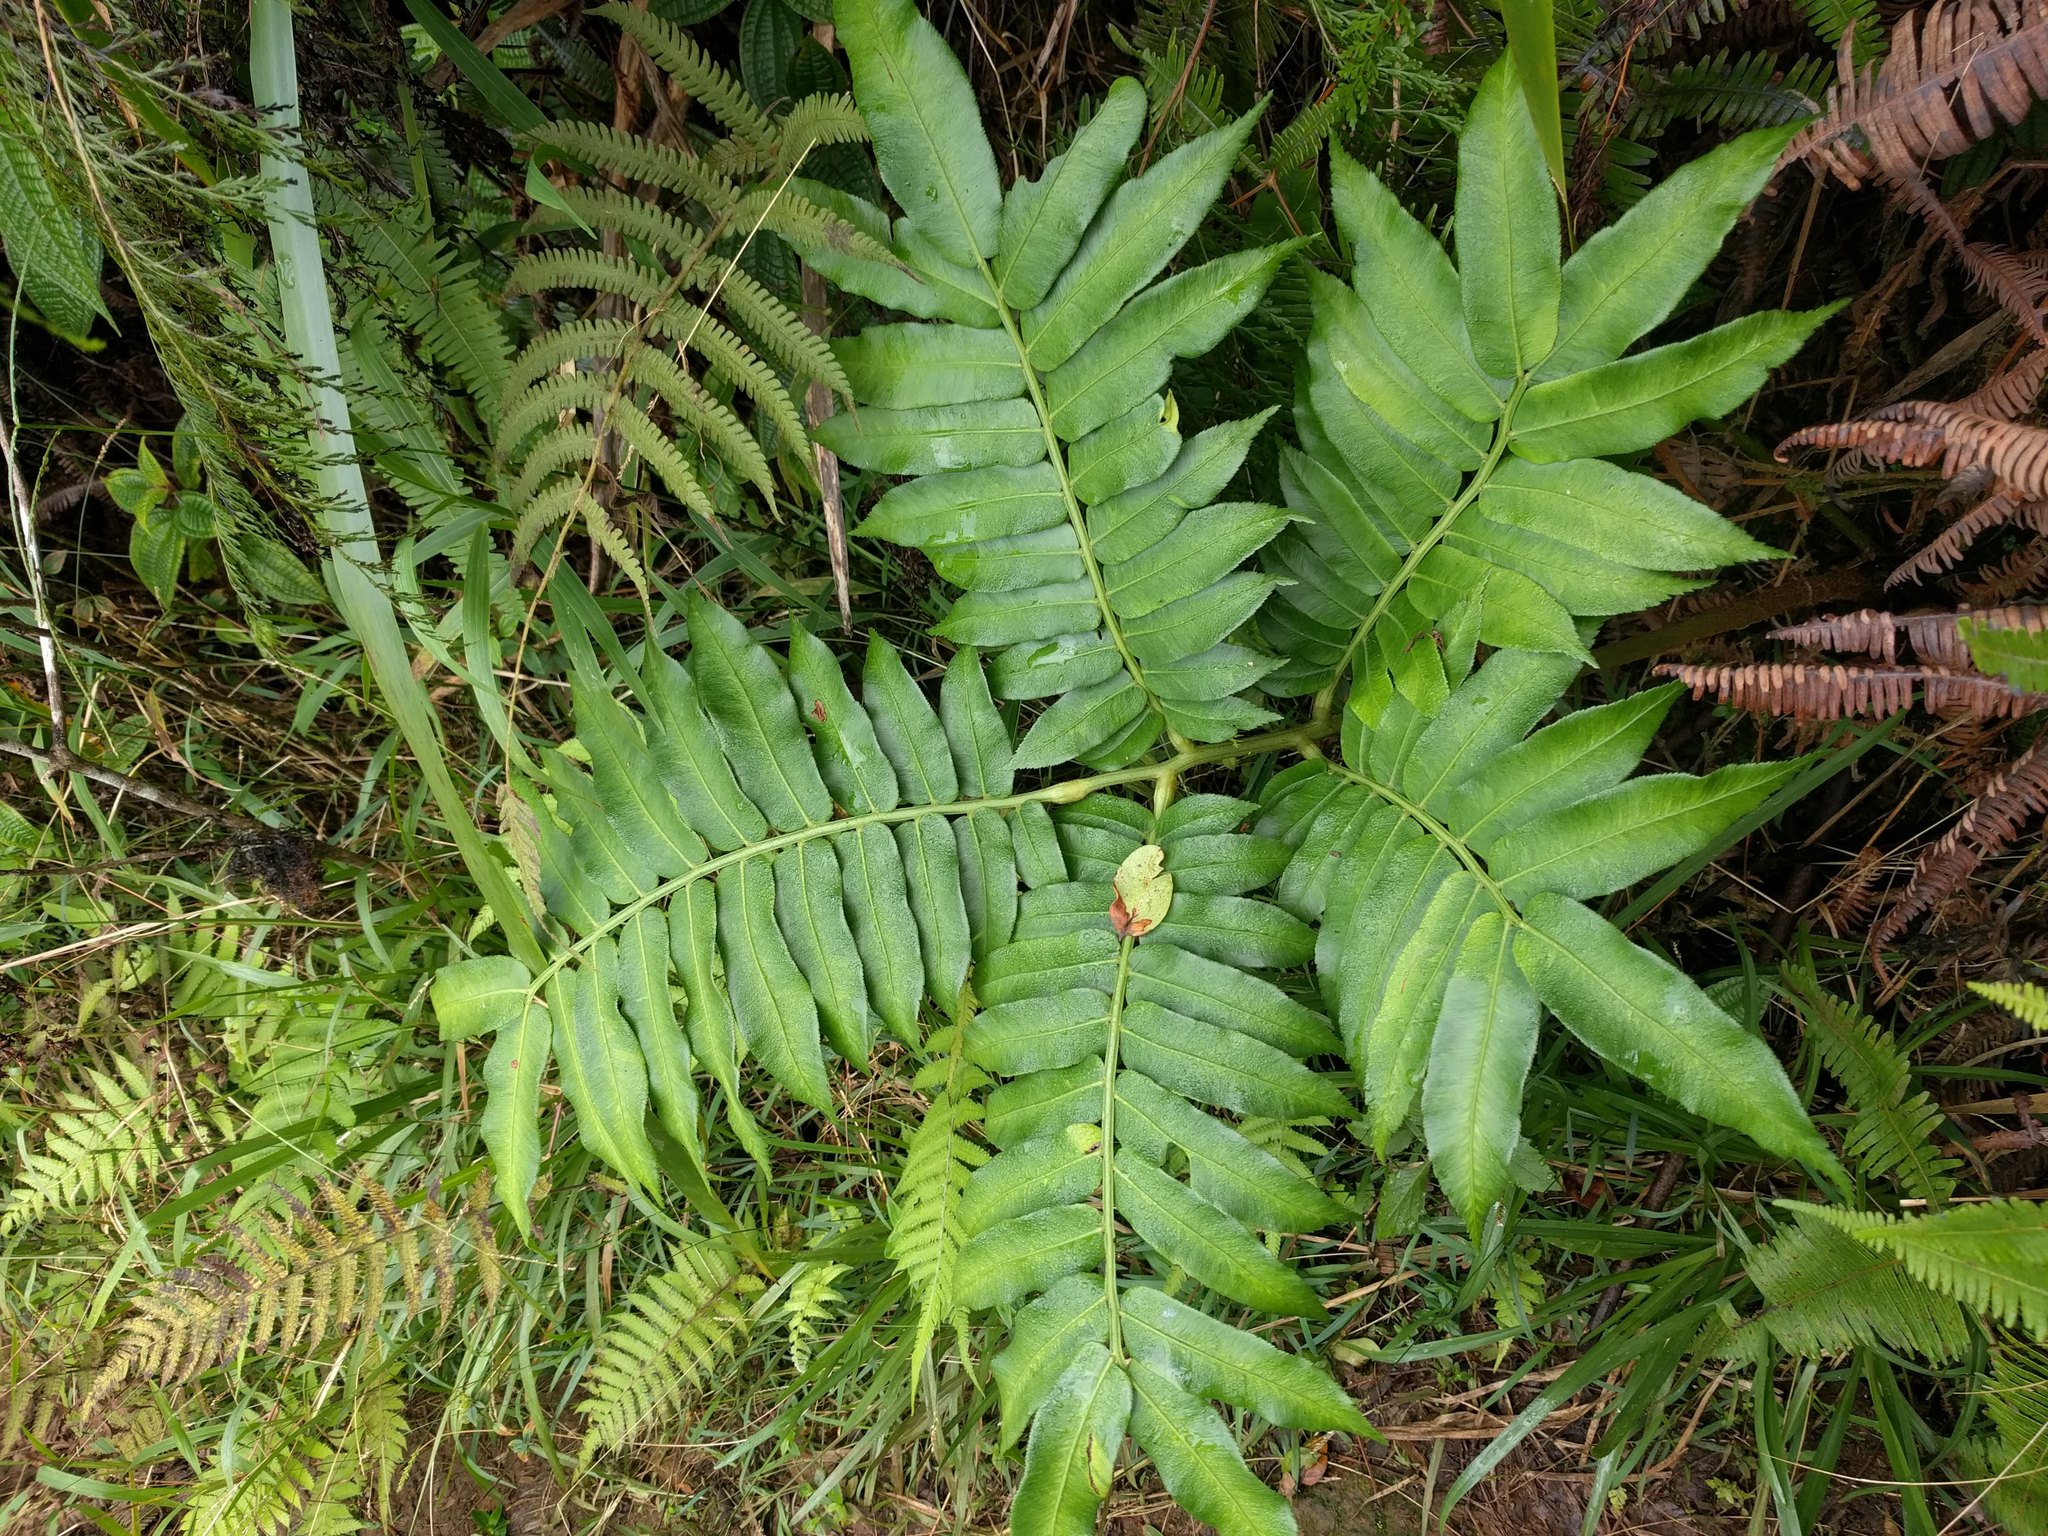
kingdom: Plantae
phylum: Tracheophyta
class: Polypodiopsida
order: Marattiales
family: Marattiaceae
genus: Angiopteris
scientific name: Angiopteris evecta
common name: Mule's-foot fern
